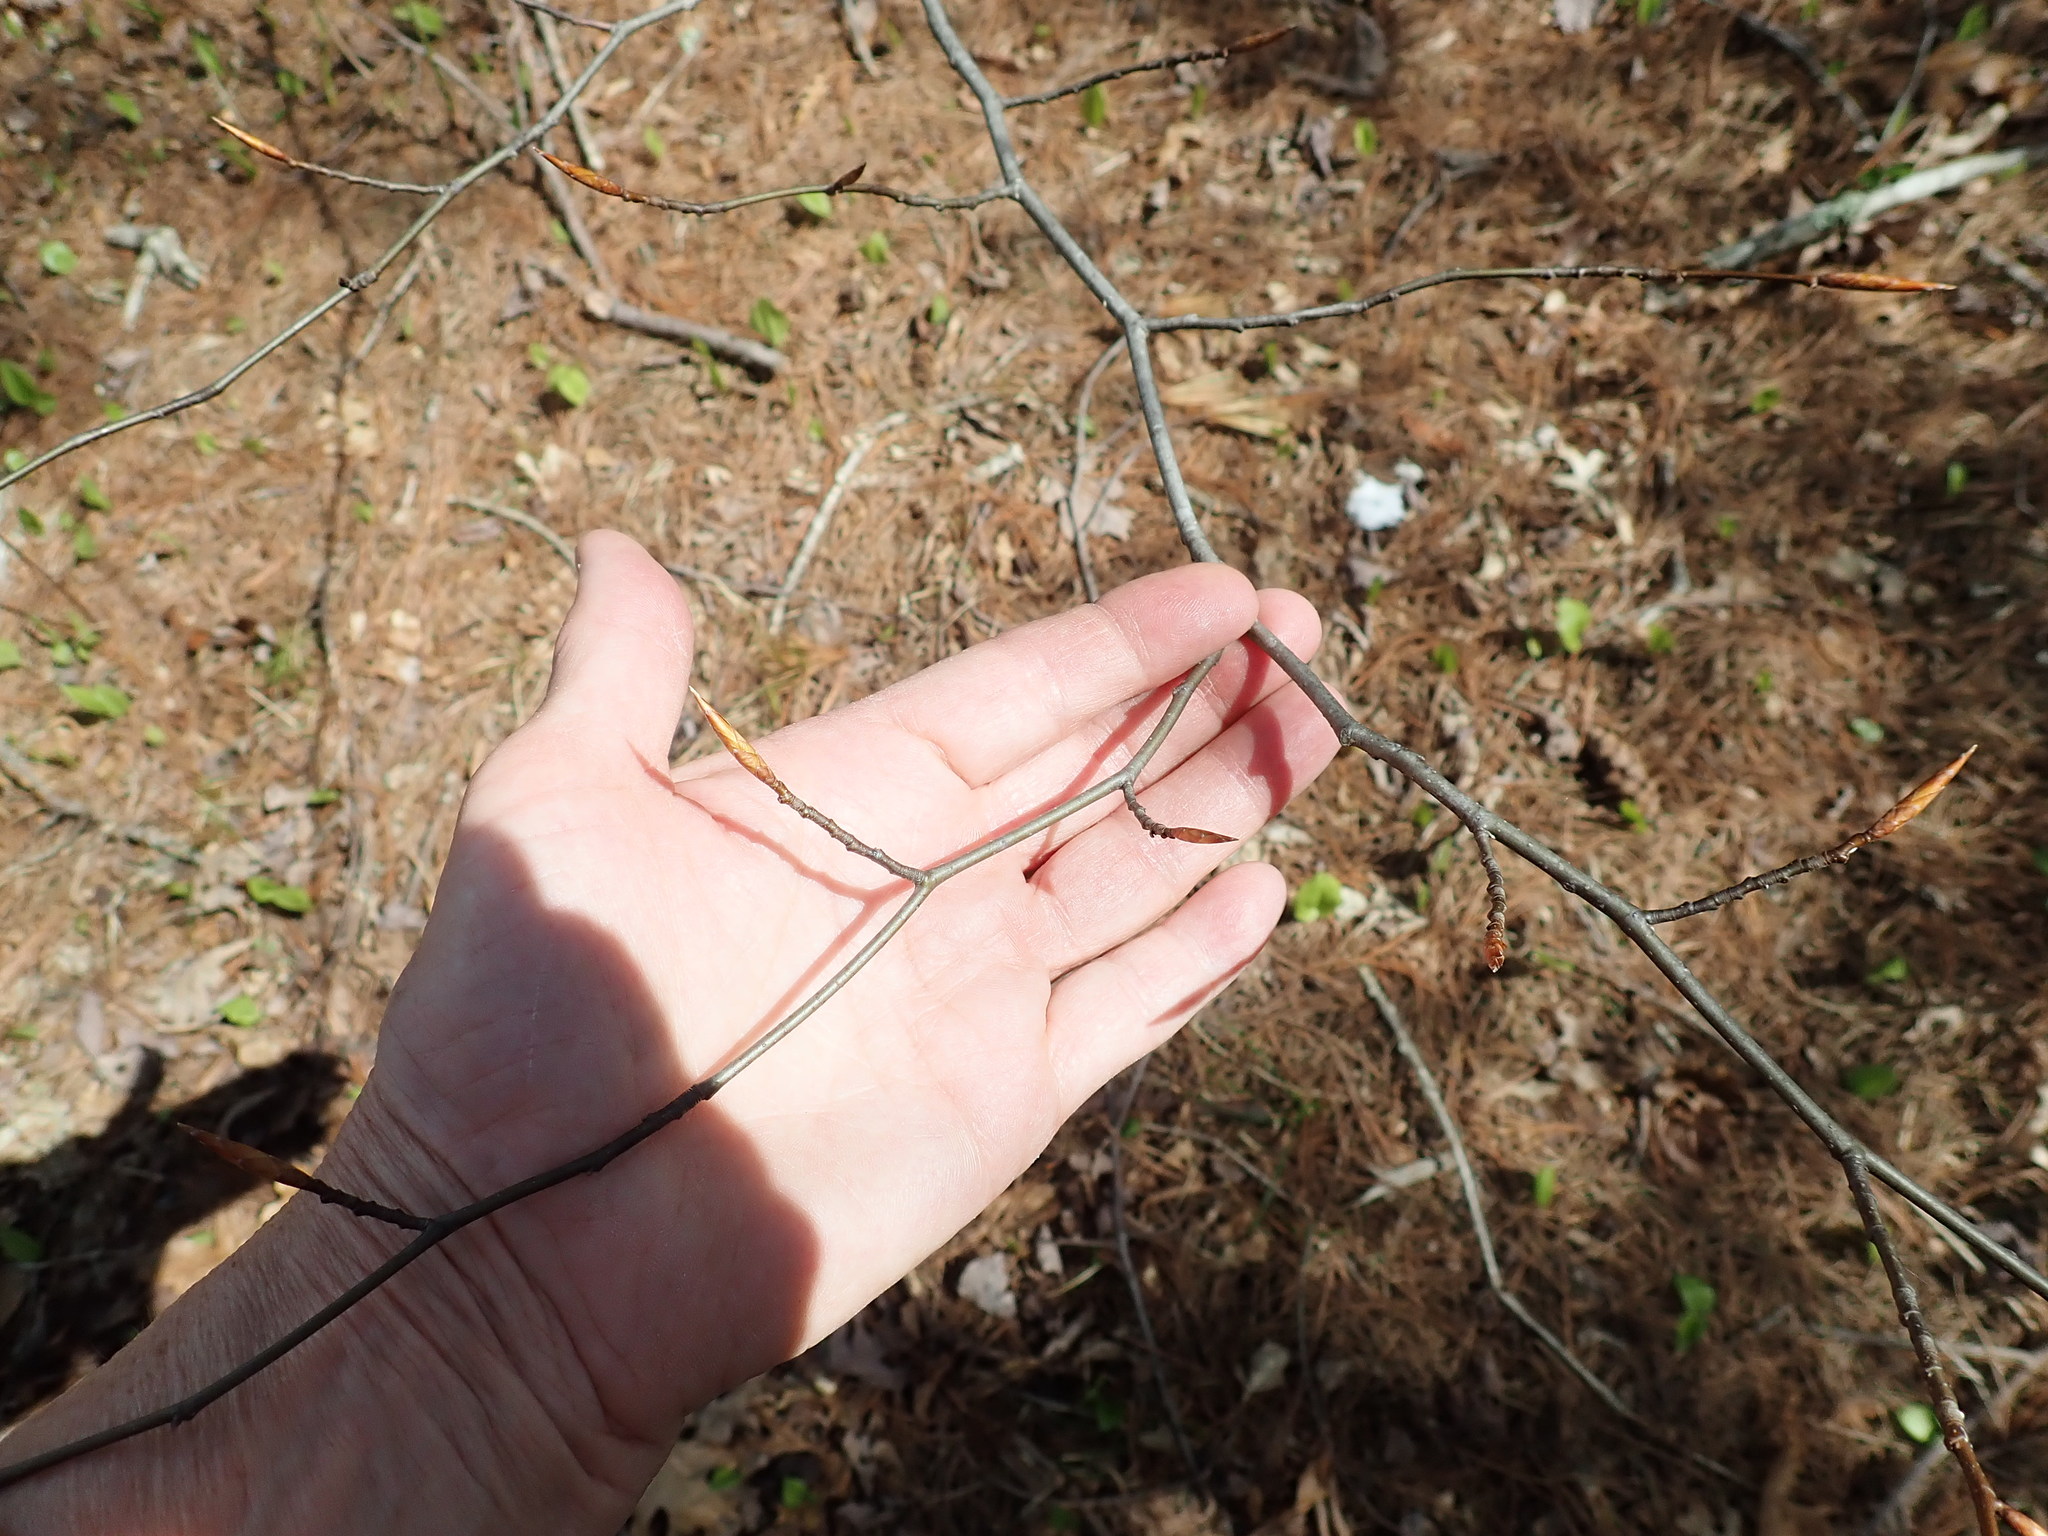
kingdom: Plantae
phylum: Tracheophyta
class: Magnoliopsida
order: Fagales
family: Fagaceae
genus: Fagus
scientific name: Fagus grandifolia
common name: American beech
